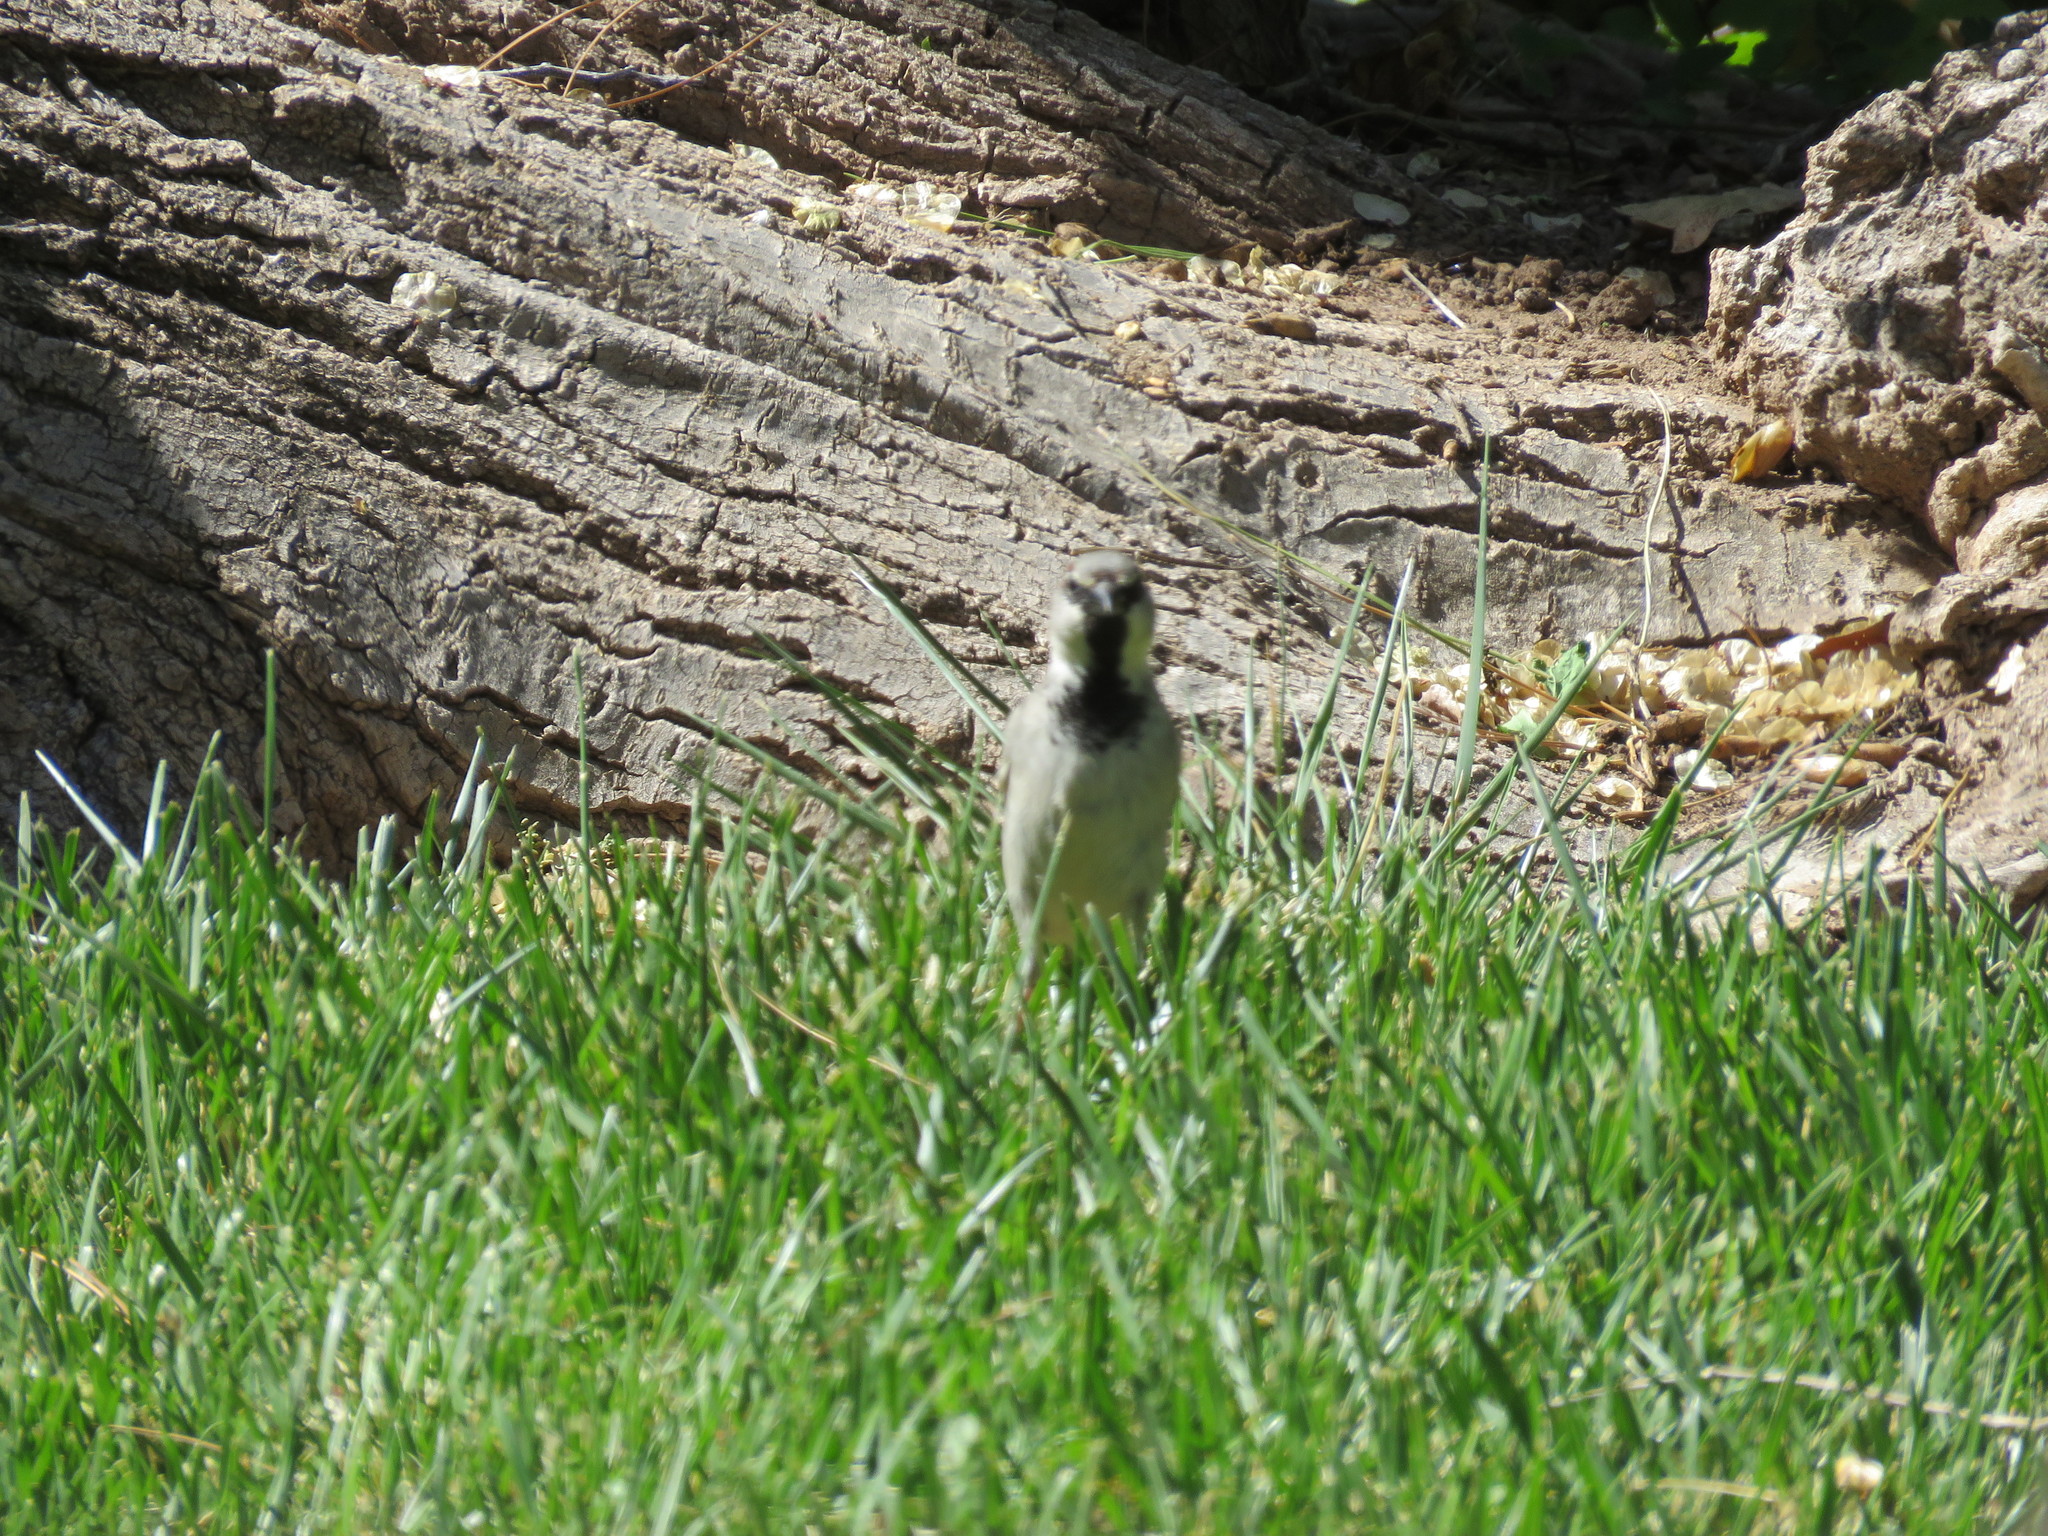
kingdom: Animalia
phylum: Chordata
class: Aves
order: Passeriformes
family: Passeridae
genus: Passer
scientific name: Passer domesticus
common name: House sparrow
